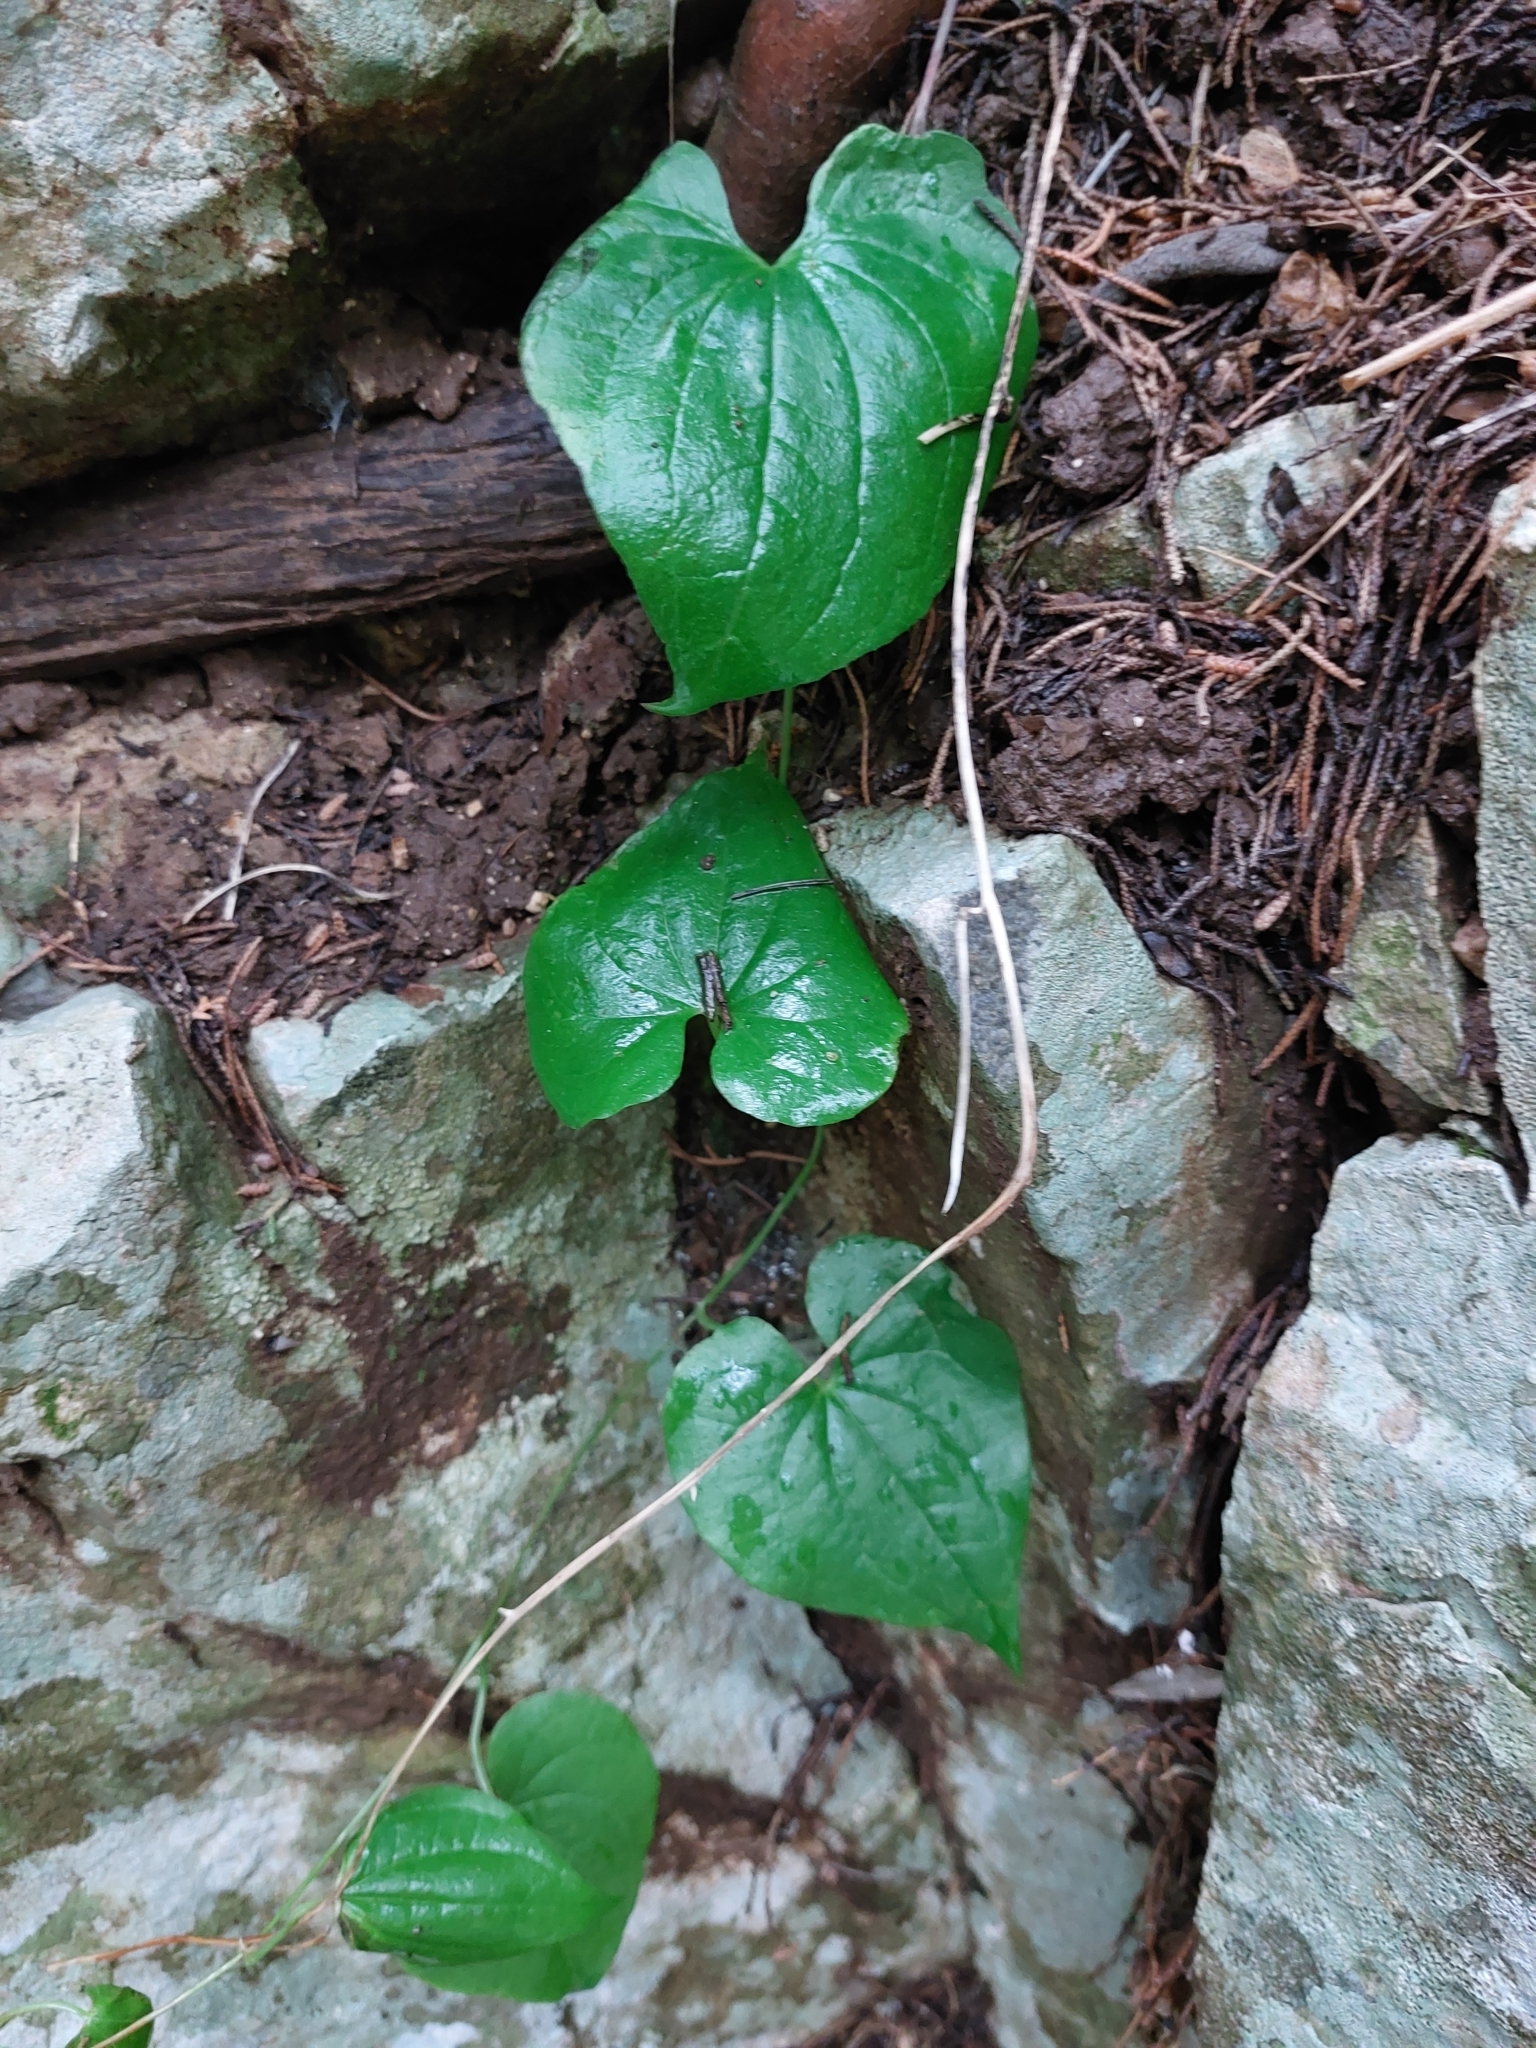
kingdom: Plantae
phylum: Tracheophyta
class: Liliopsida
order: Dioscoreales
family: Dioscoreaceae
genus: Dioscorea
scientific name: Dioscorea communis
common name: Black-bindweed
